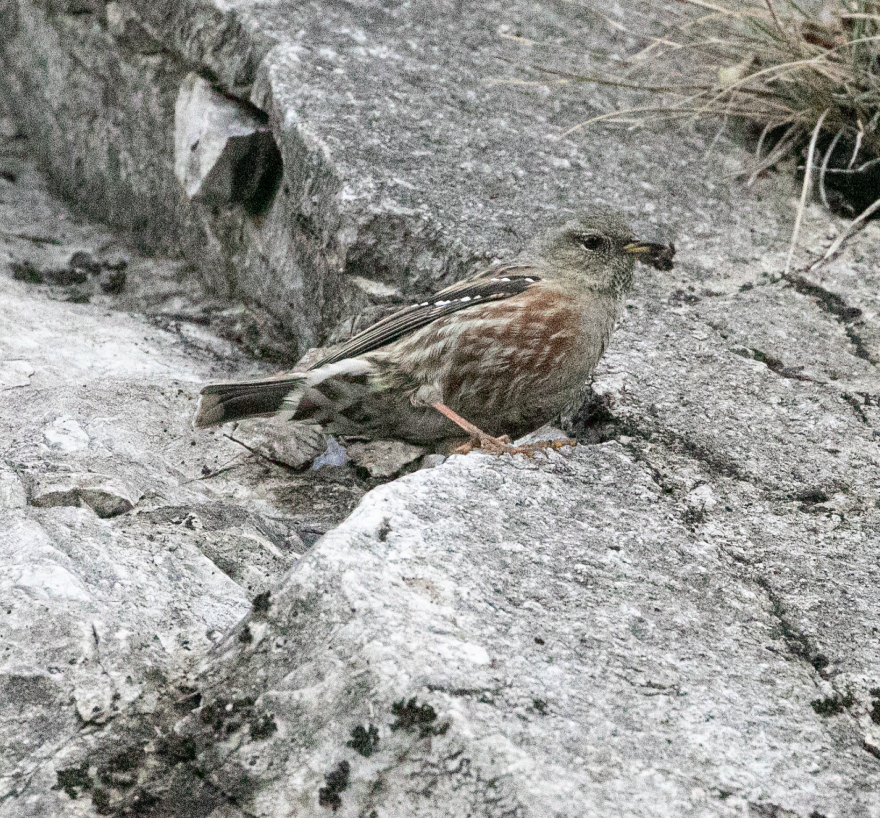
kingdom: Animalia
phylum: Chordata
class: Aves
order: Passeriformes
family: Prunellidae
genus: Prunella
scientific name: Prunella collaris
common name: Alpine accentor
